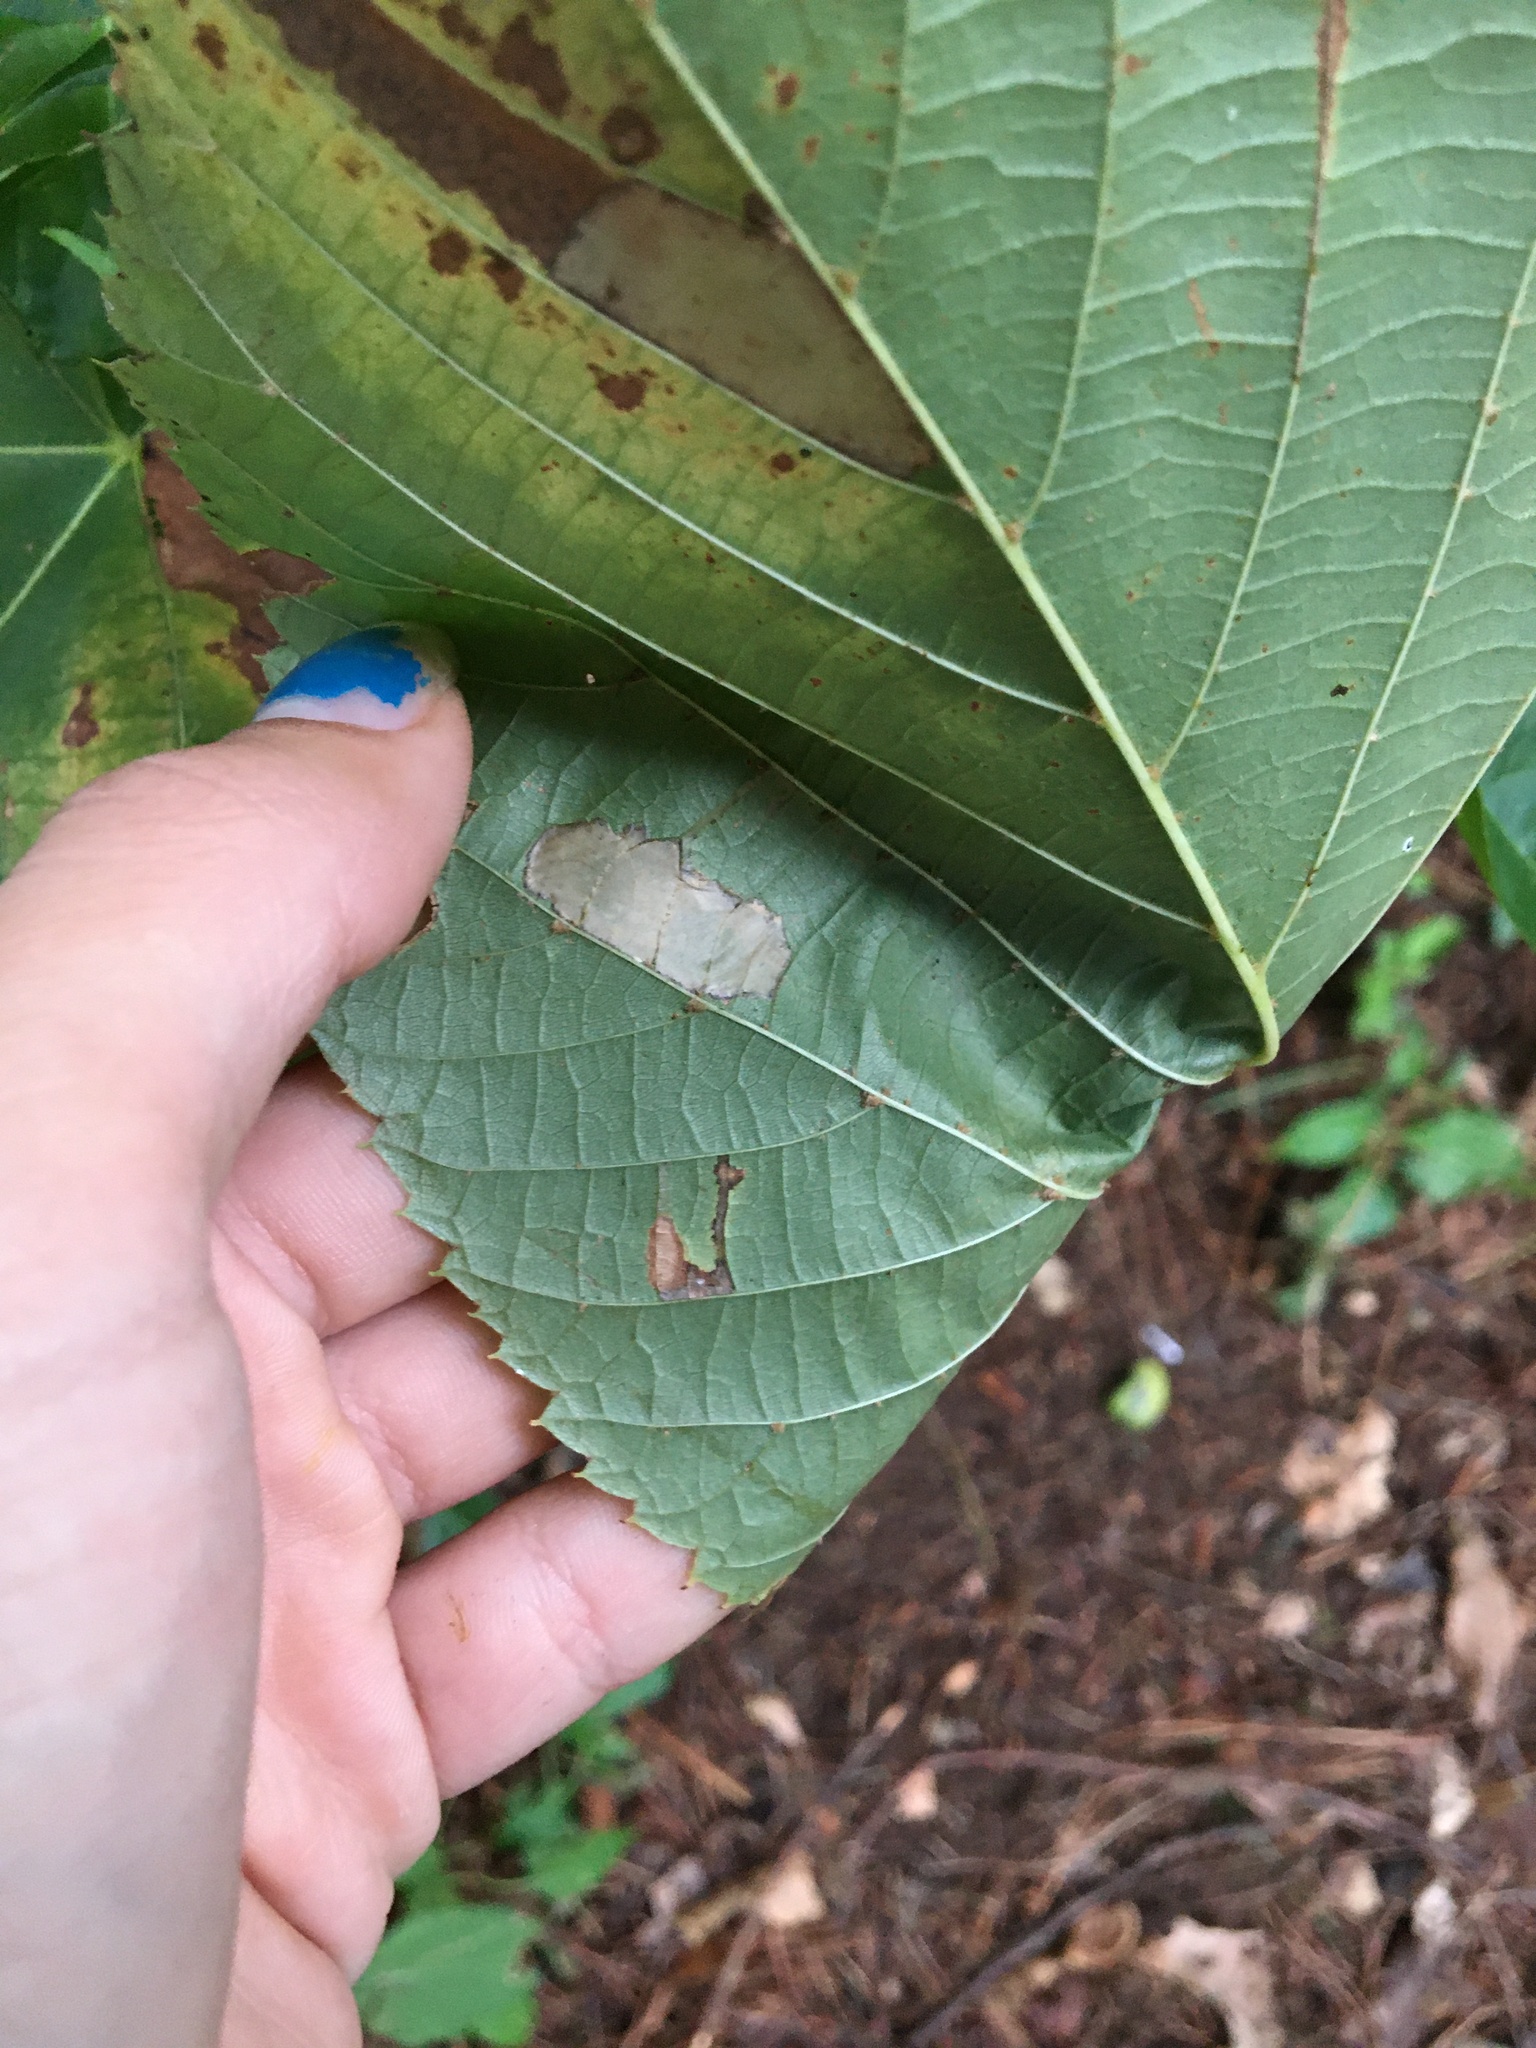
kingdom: Animalia
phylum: Arthropoda
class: Insecta
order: Lepidoptera
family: Gracillariidae
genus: Phyllonorycter
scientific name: Phyllonorycter lucetiella
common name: Basswood miner moth
